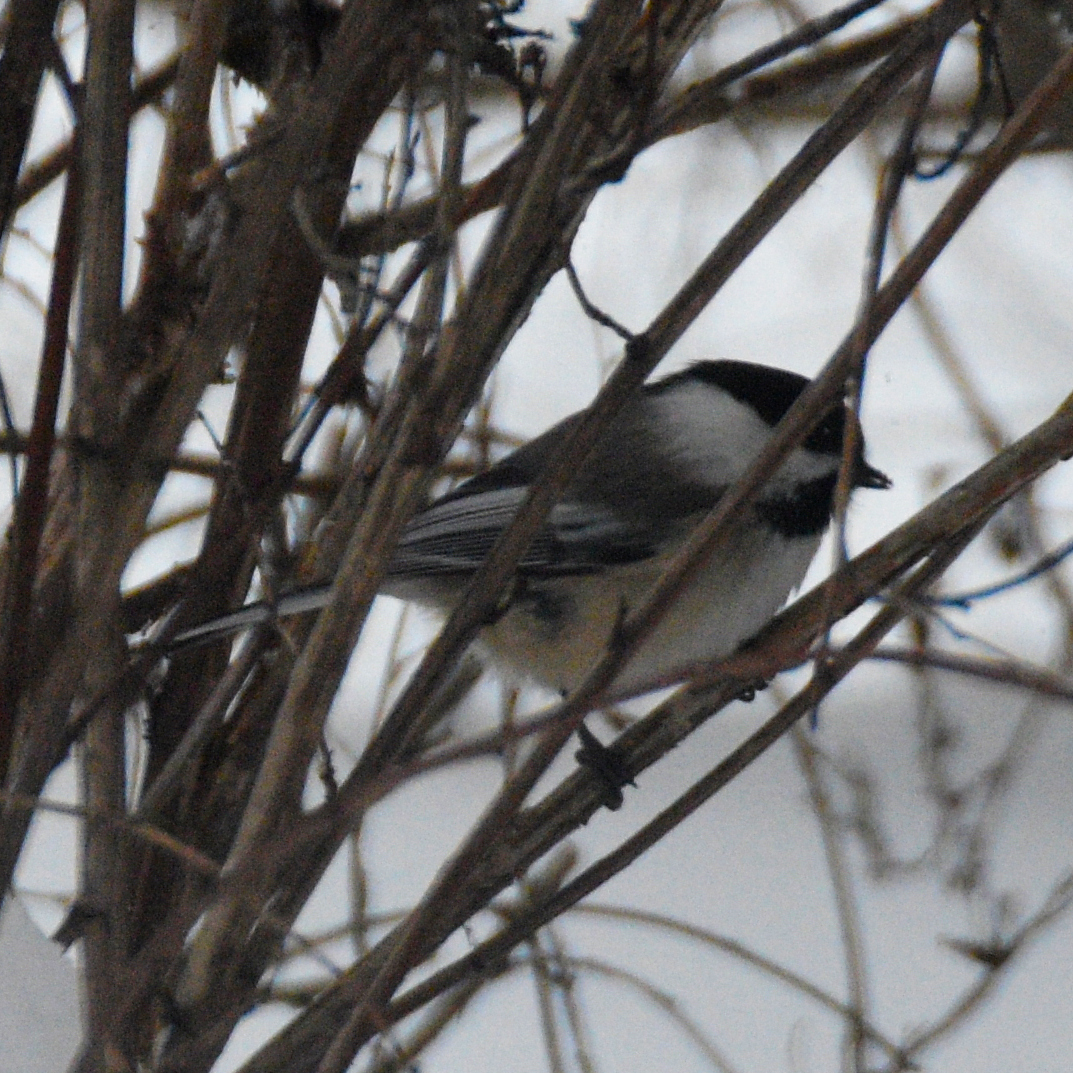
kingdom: Animalia
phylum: Chordata
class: Aves
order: Passeriformes
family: Paridae
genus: Poecile
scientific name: Poecile atricapillus
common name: Black-capped chickadee
